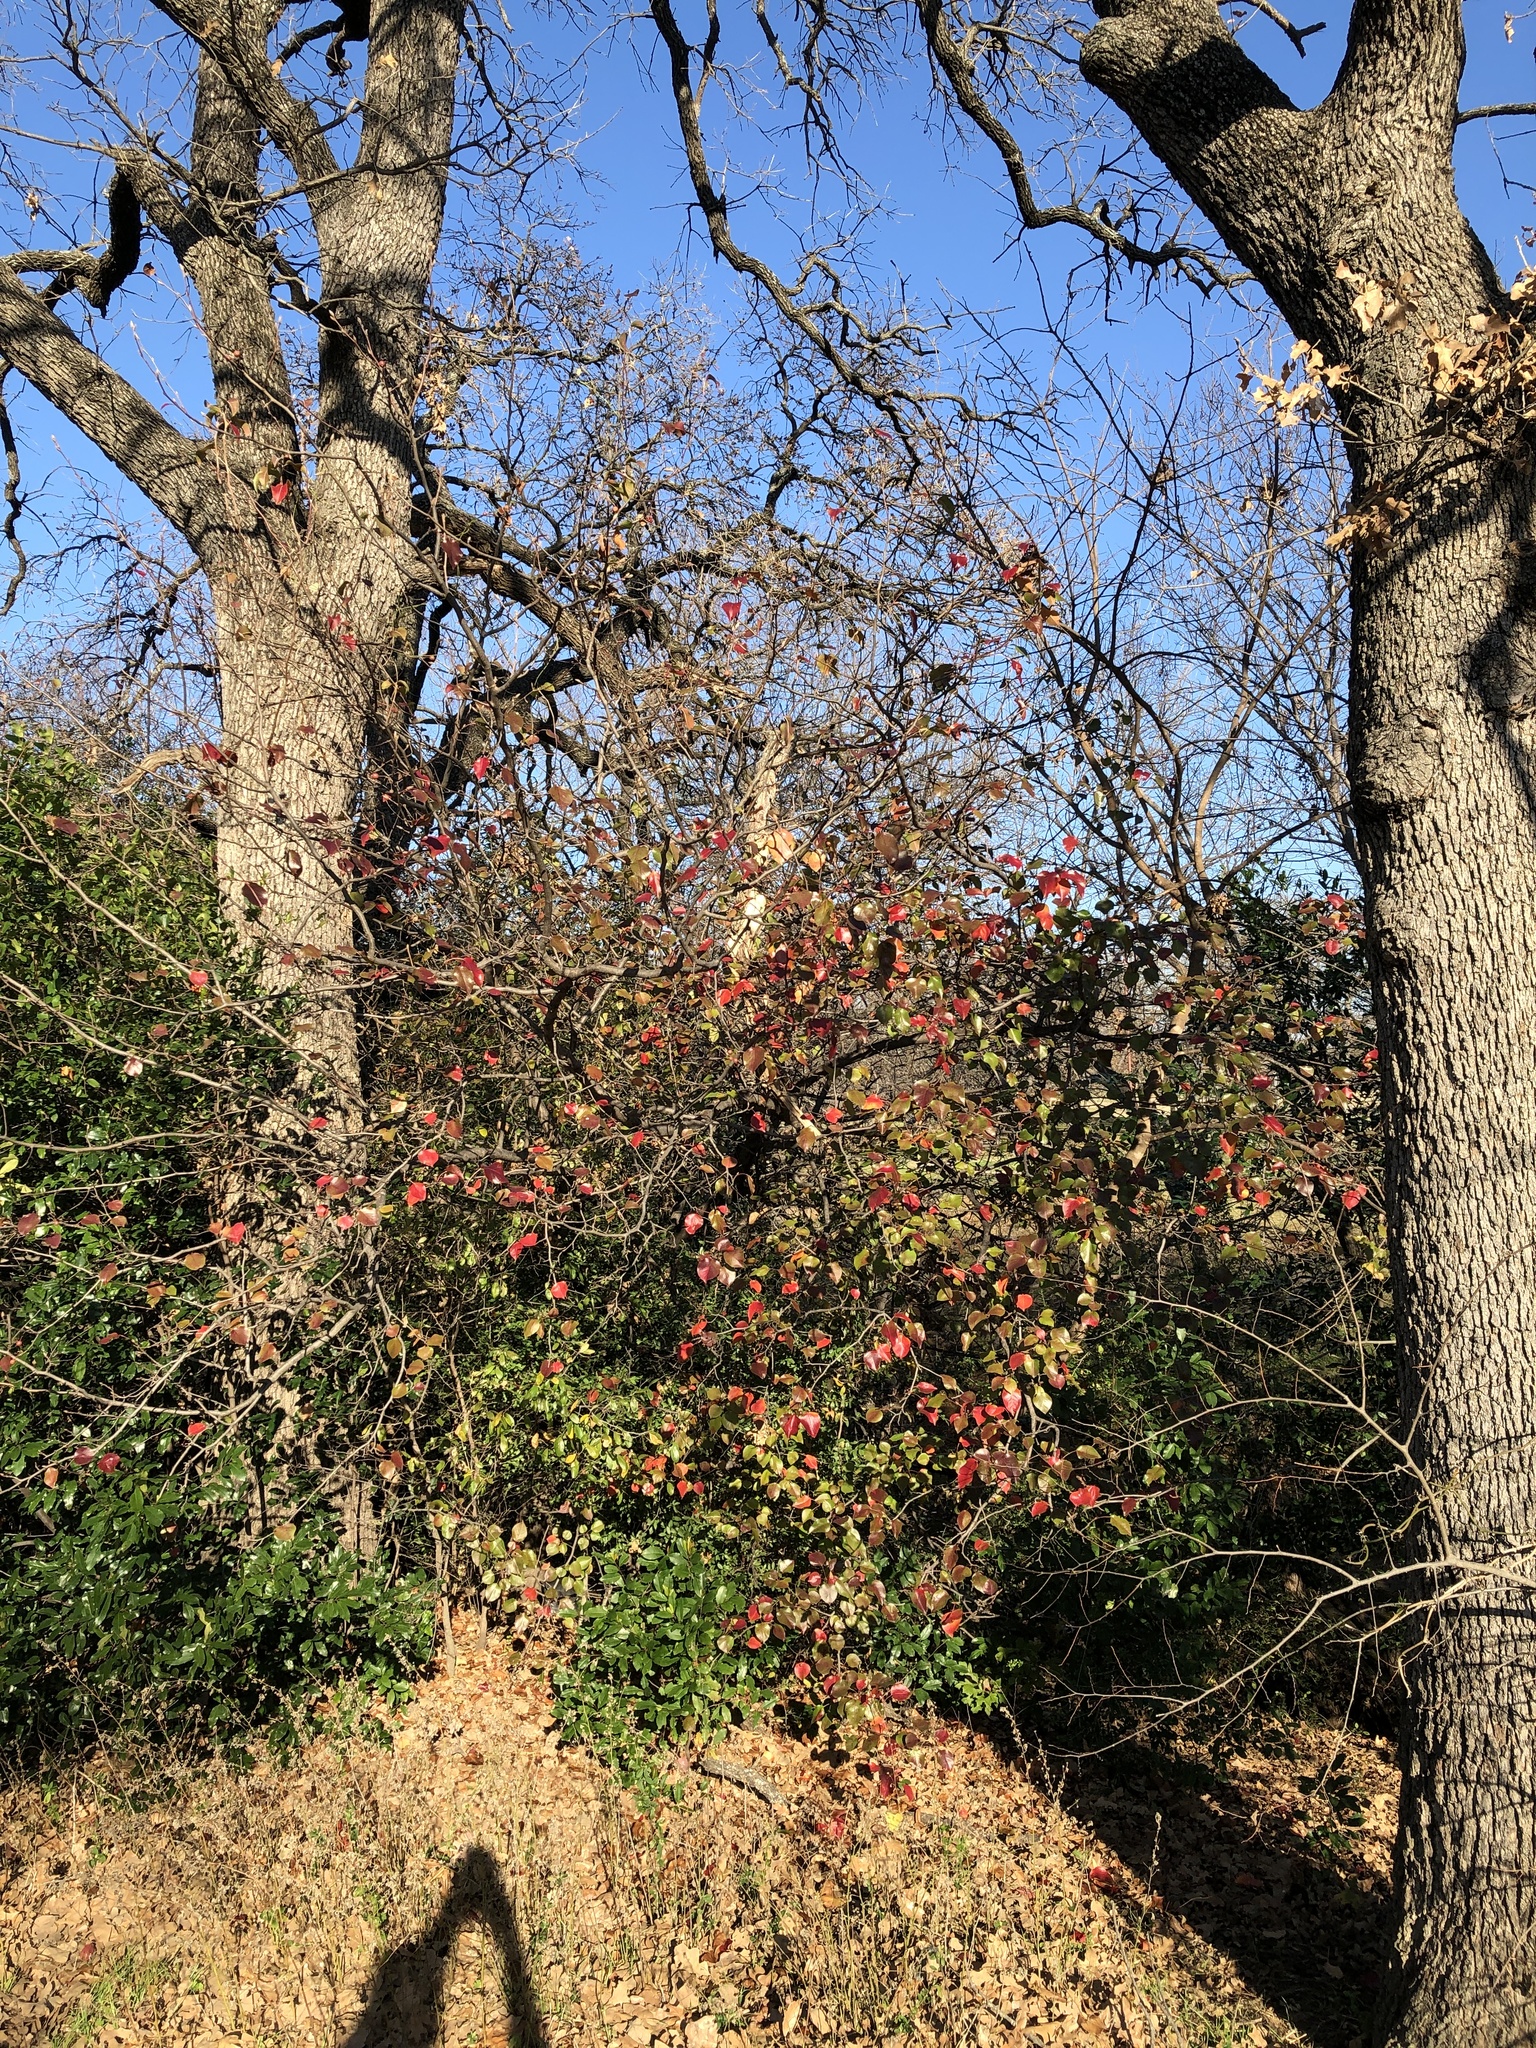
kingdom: Plantae
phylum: Tracheophyta
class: Magnoliopsida
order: Rosales
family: Rosaceae
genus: Pyrus
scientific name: Pyrus calleryana
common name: Callery pear
